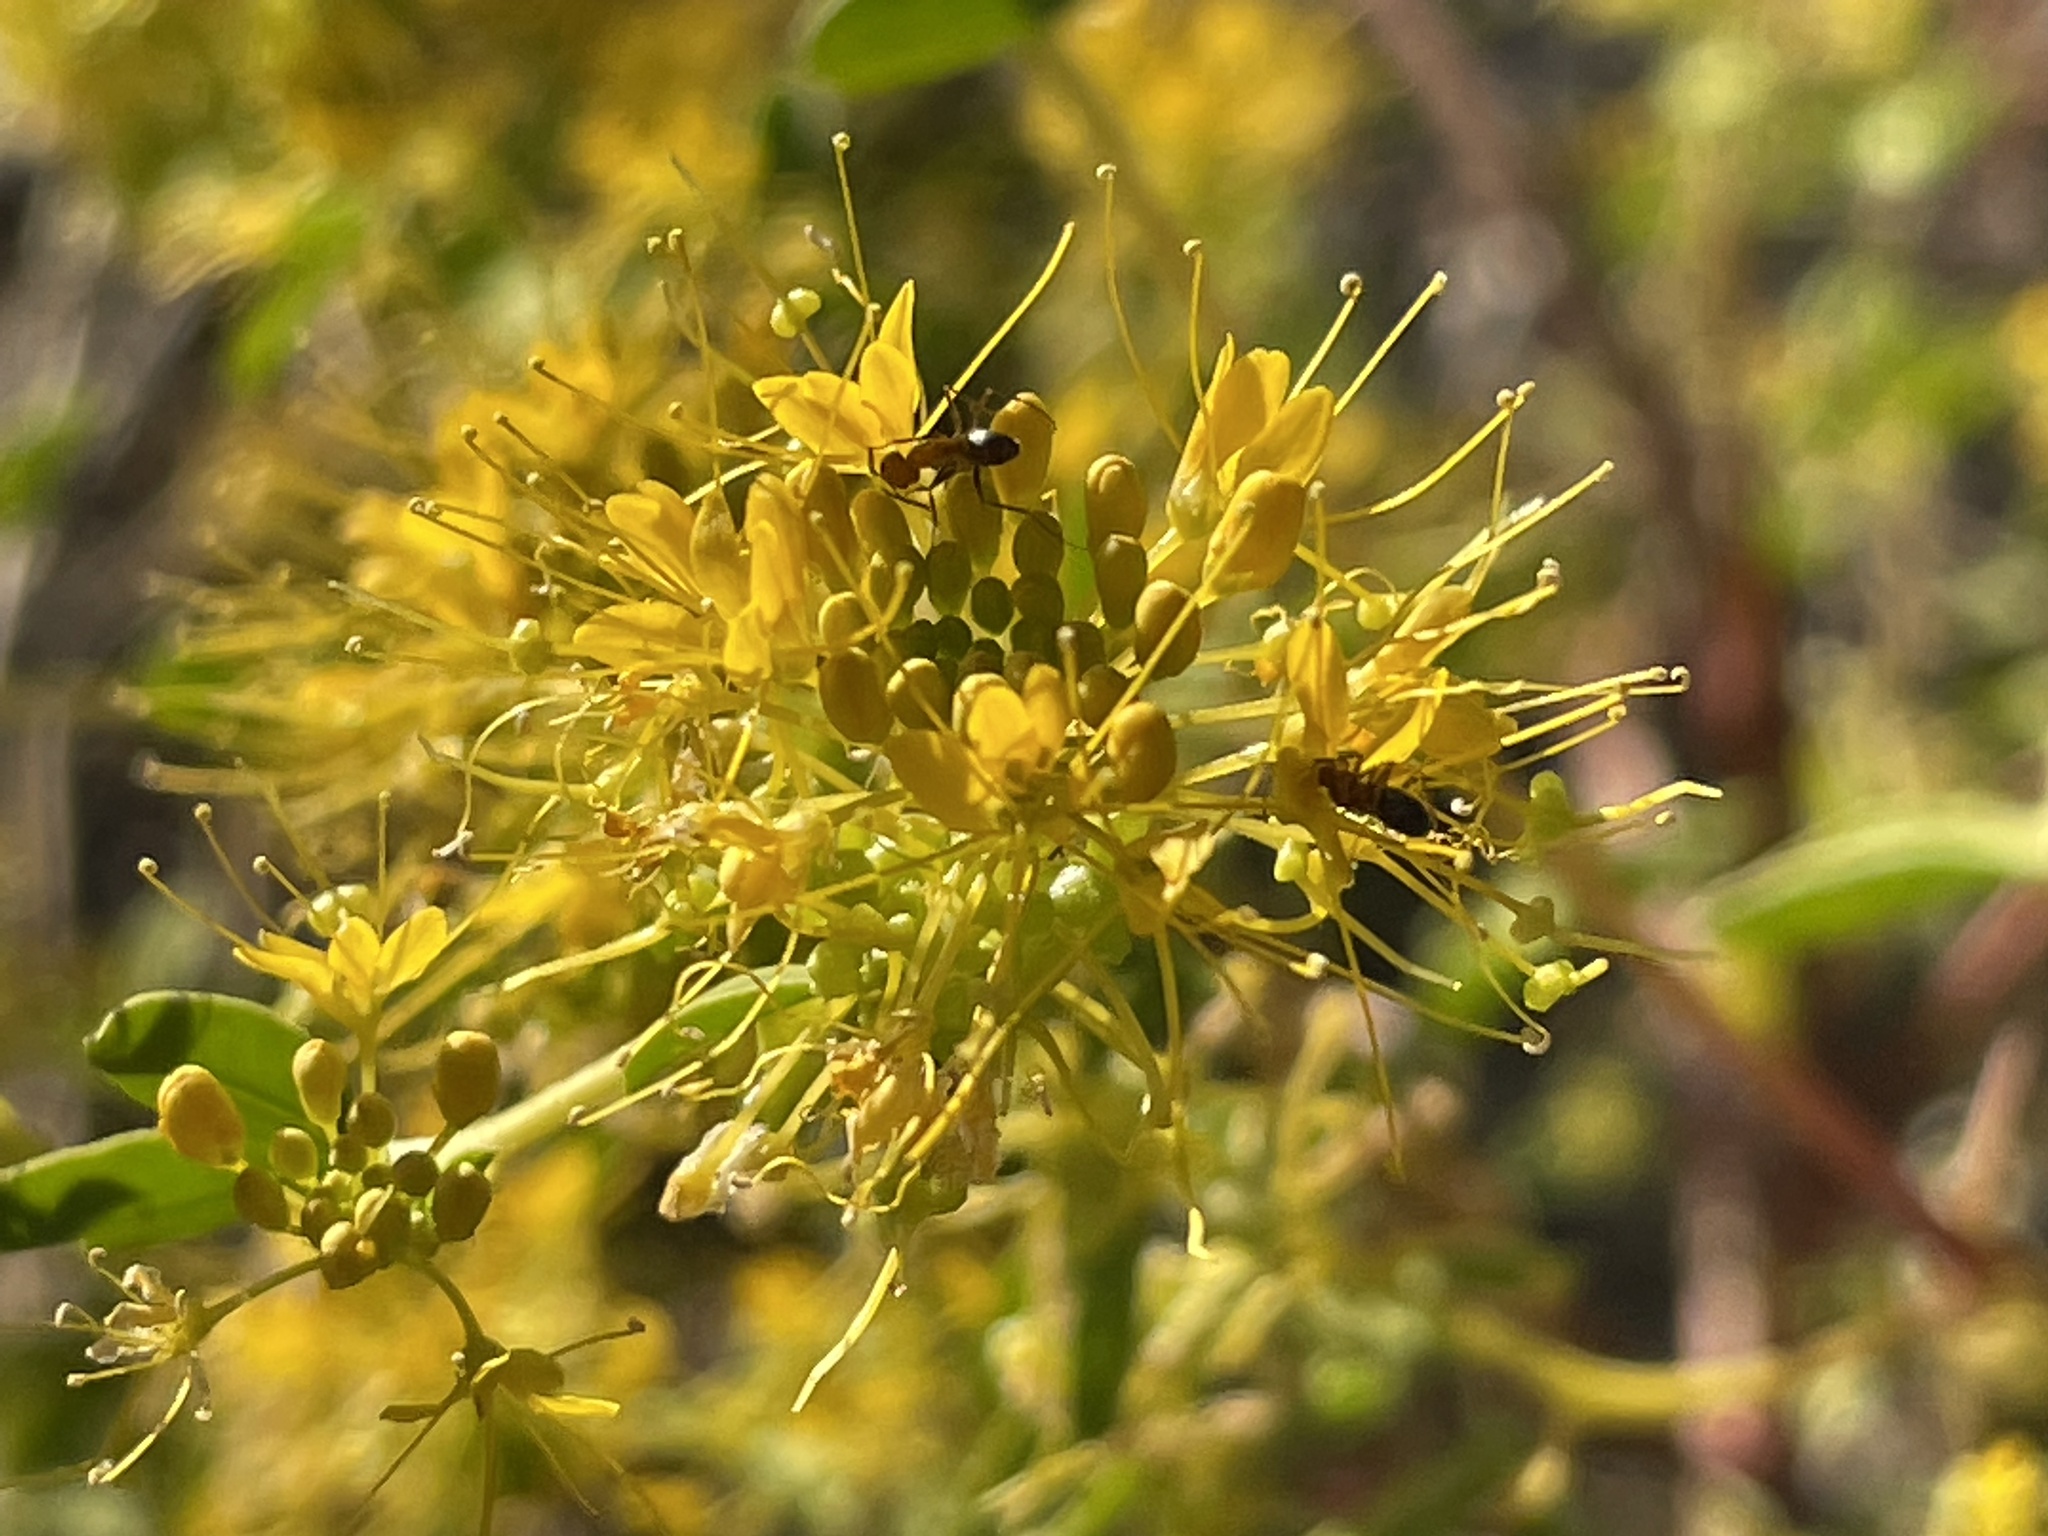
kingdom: Plantae
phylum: Tracheophyta
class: Magnoliopsida
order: Brassicales
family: Cleomaceae
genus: Cleomella
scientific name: Cleomella obtusifolia
